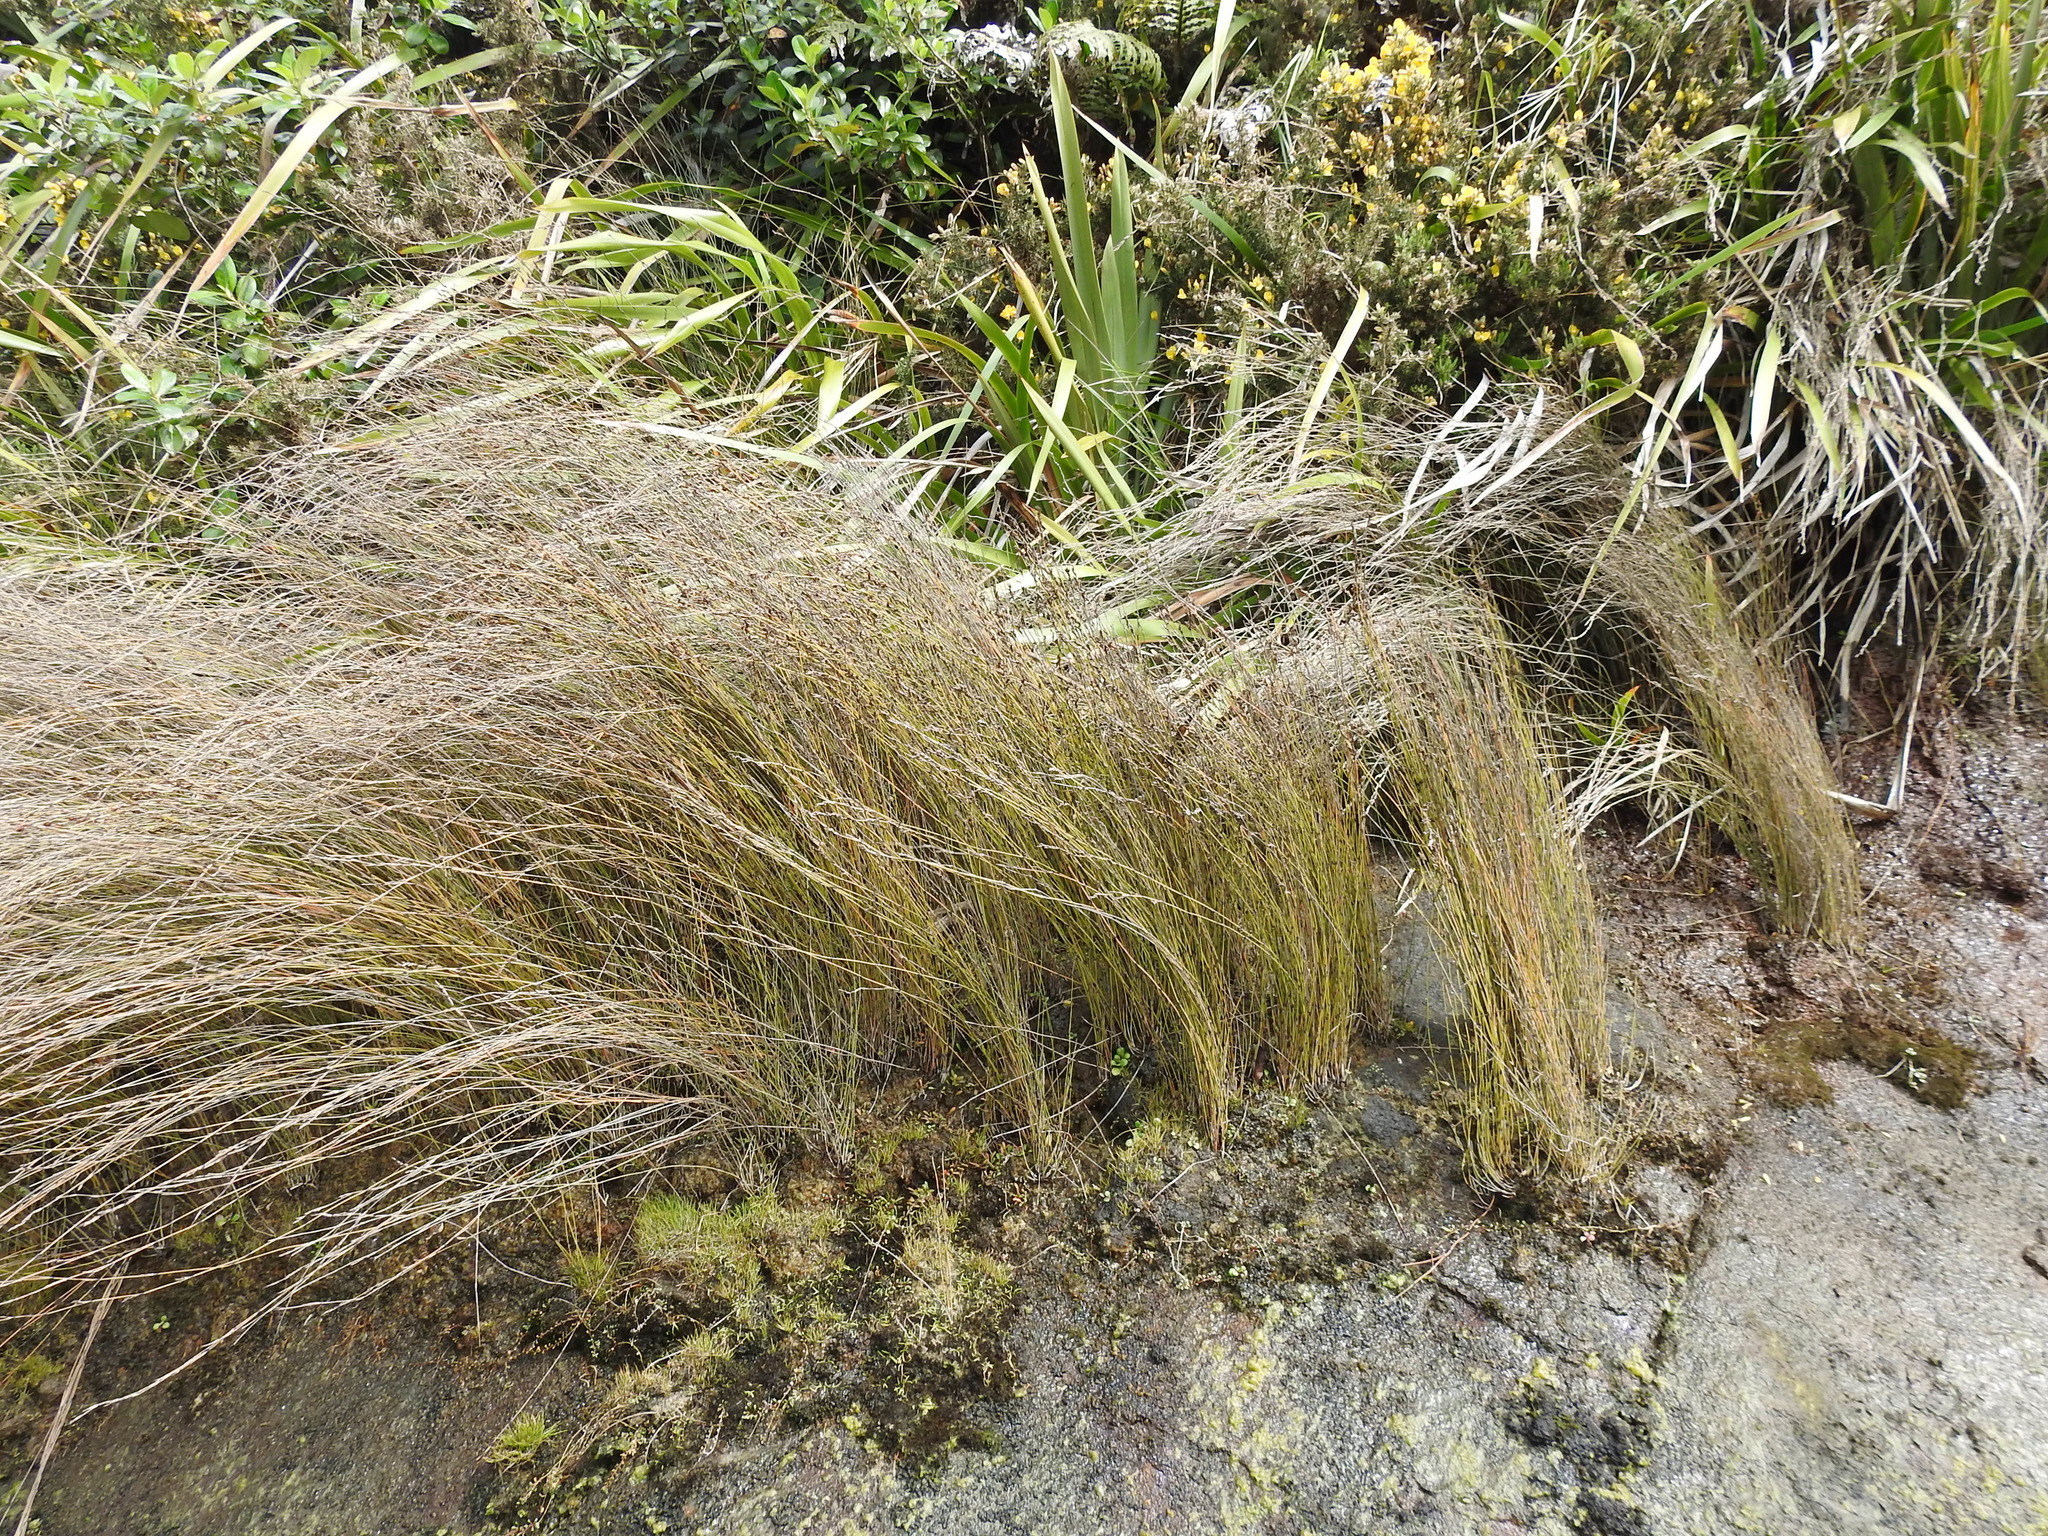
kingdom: Plantae
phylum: Tracheophyta
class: Liliopsida
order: Poales
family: Restionaceae
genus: Apodasmia
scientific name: Apodasmia similis
